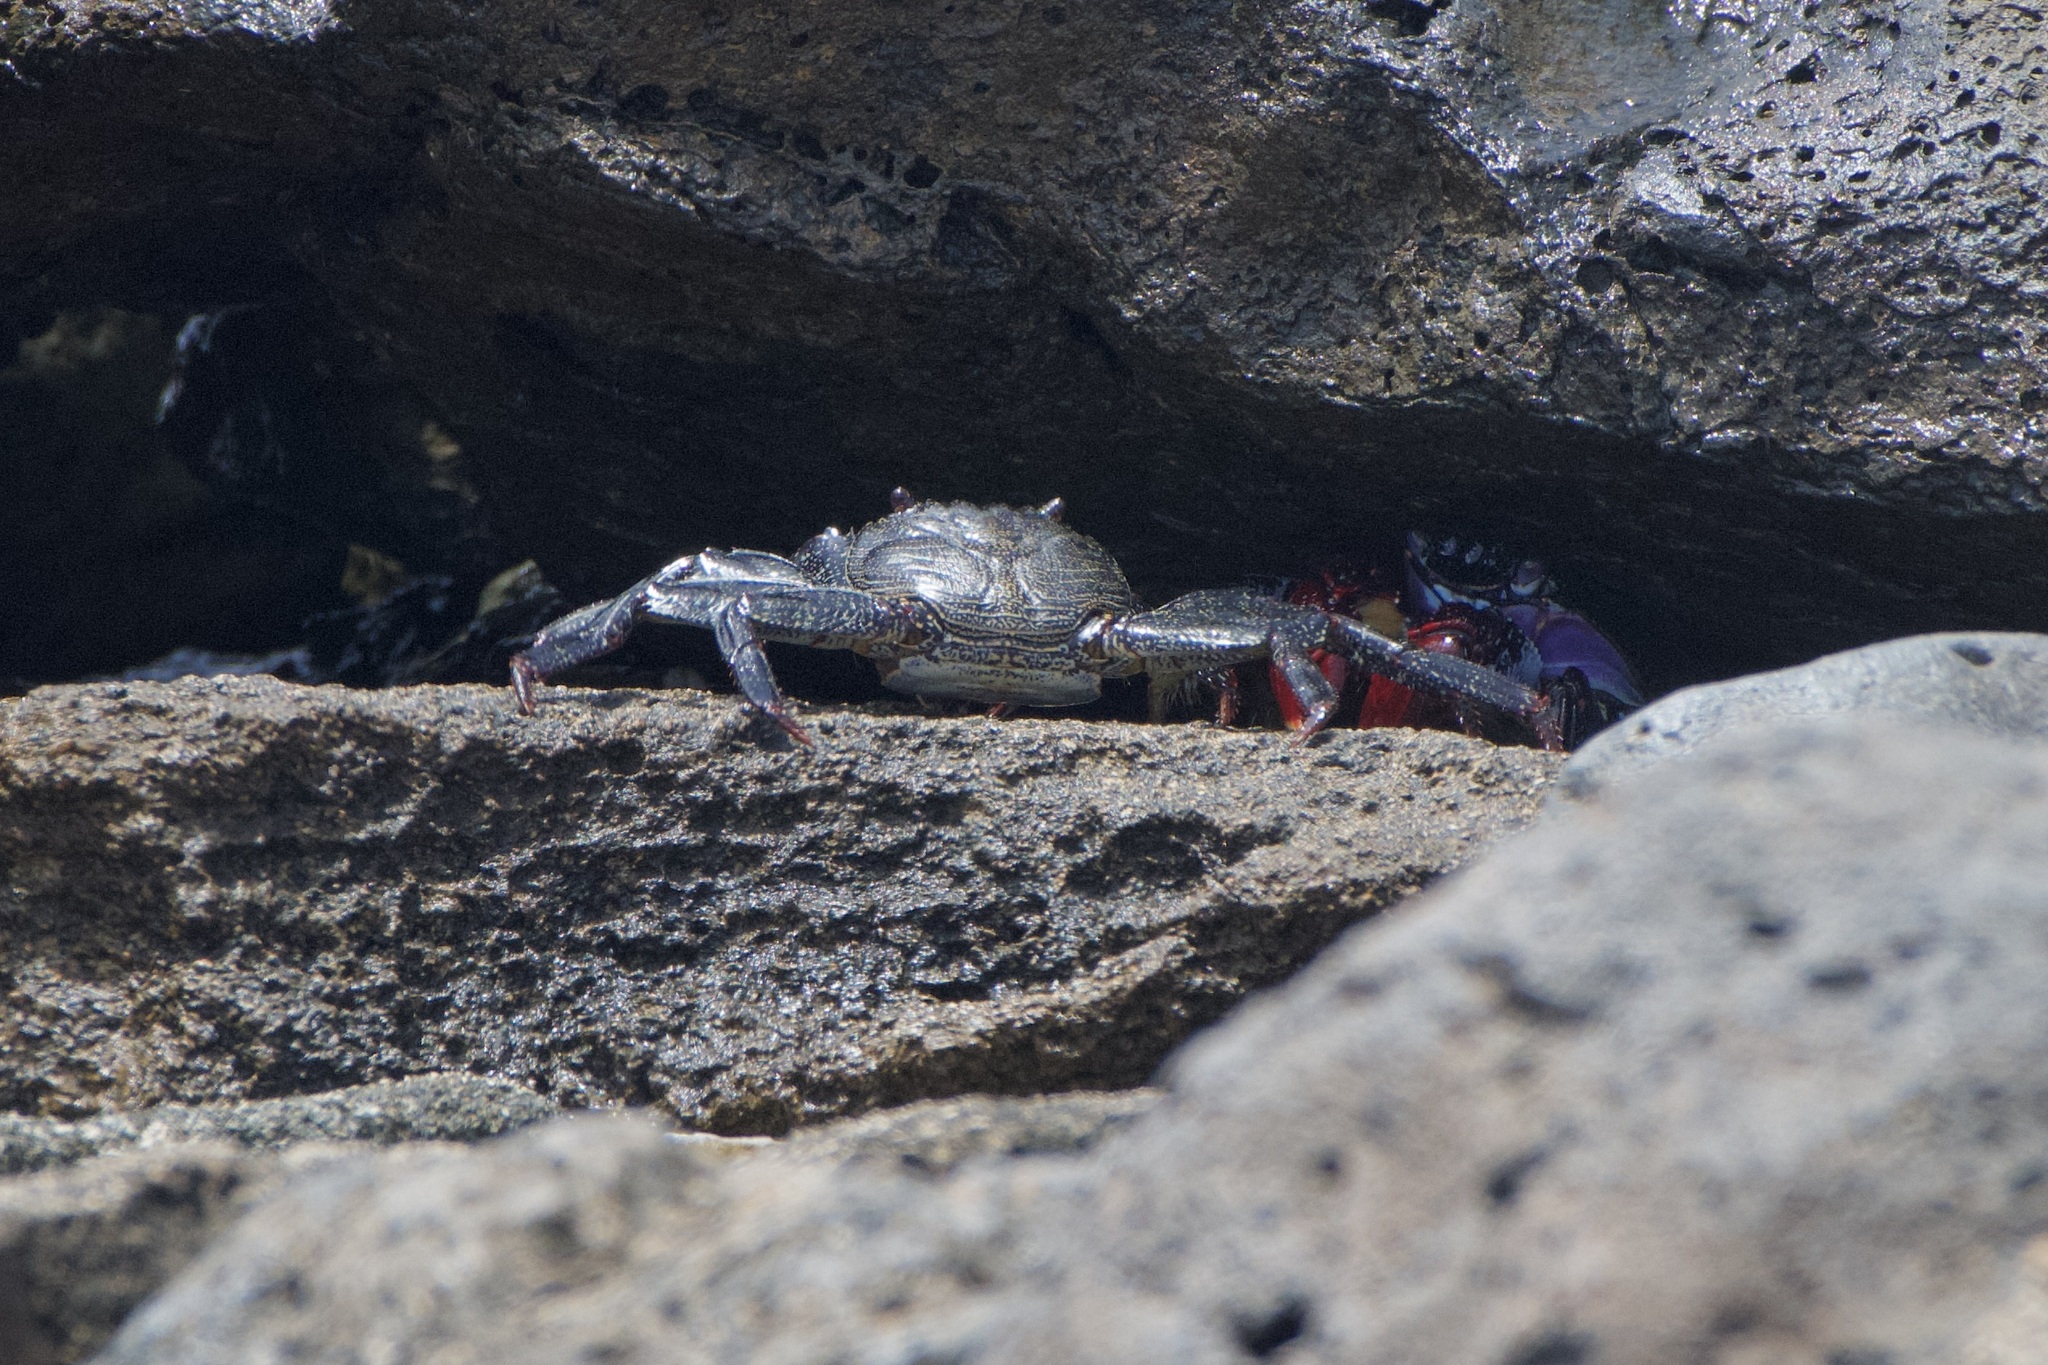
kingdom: Animalia
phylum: Arthropoda
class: Malacostraca
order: Decapoda
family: Grapsidae
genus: Grapsus
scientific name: Grapsus adscensionis
